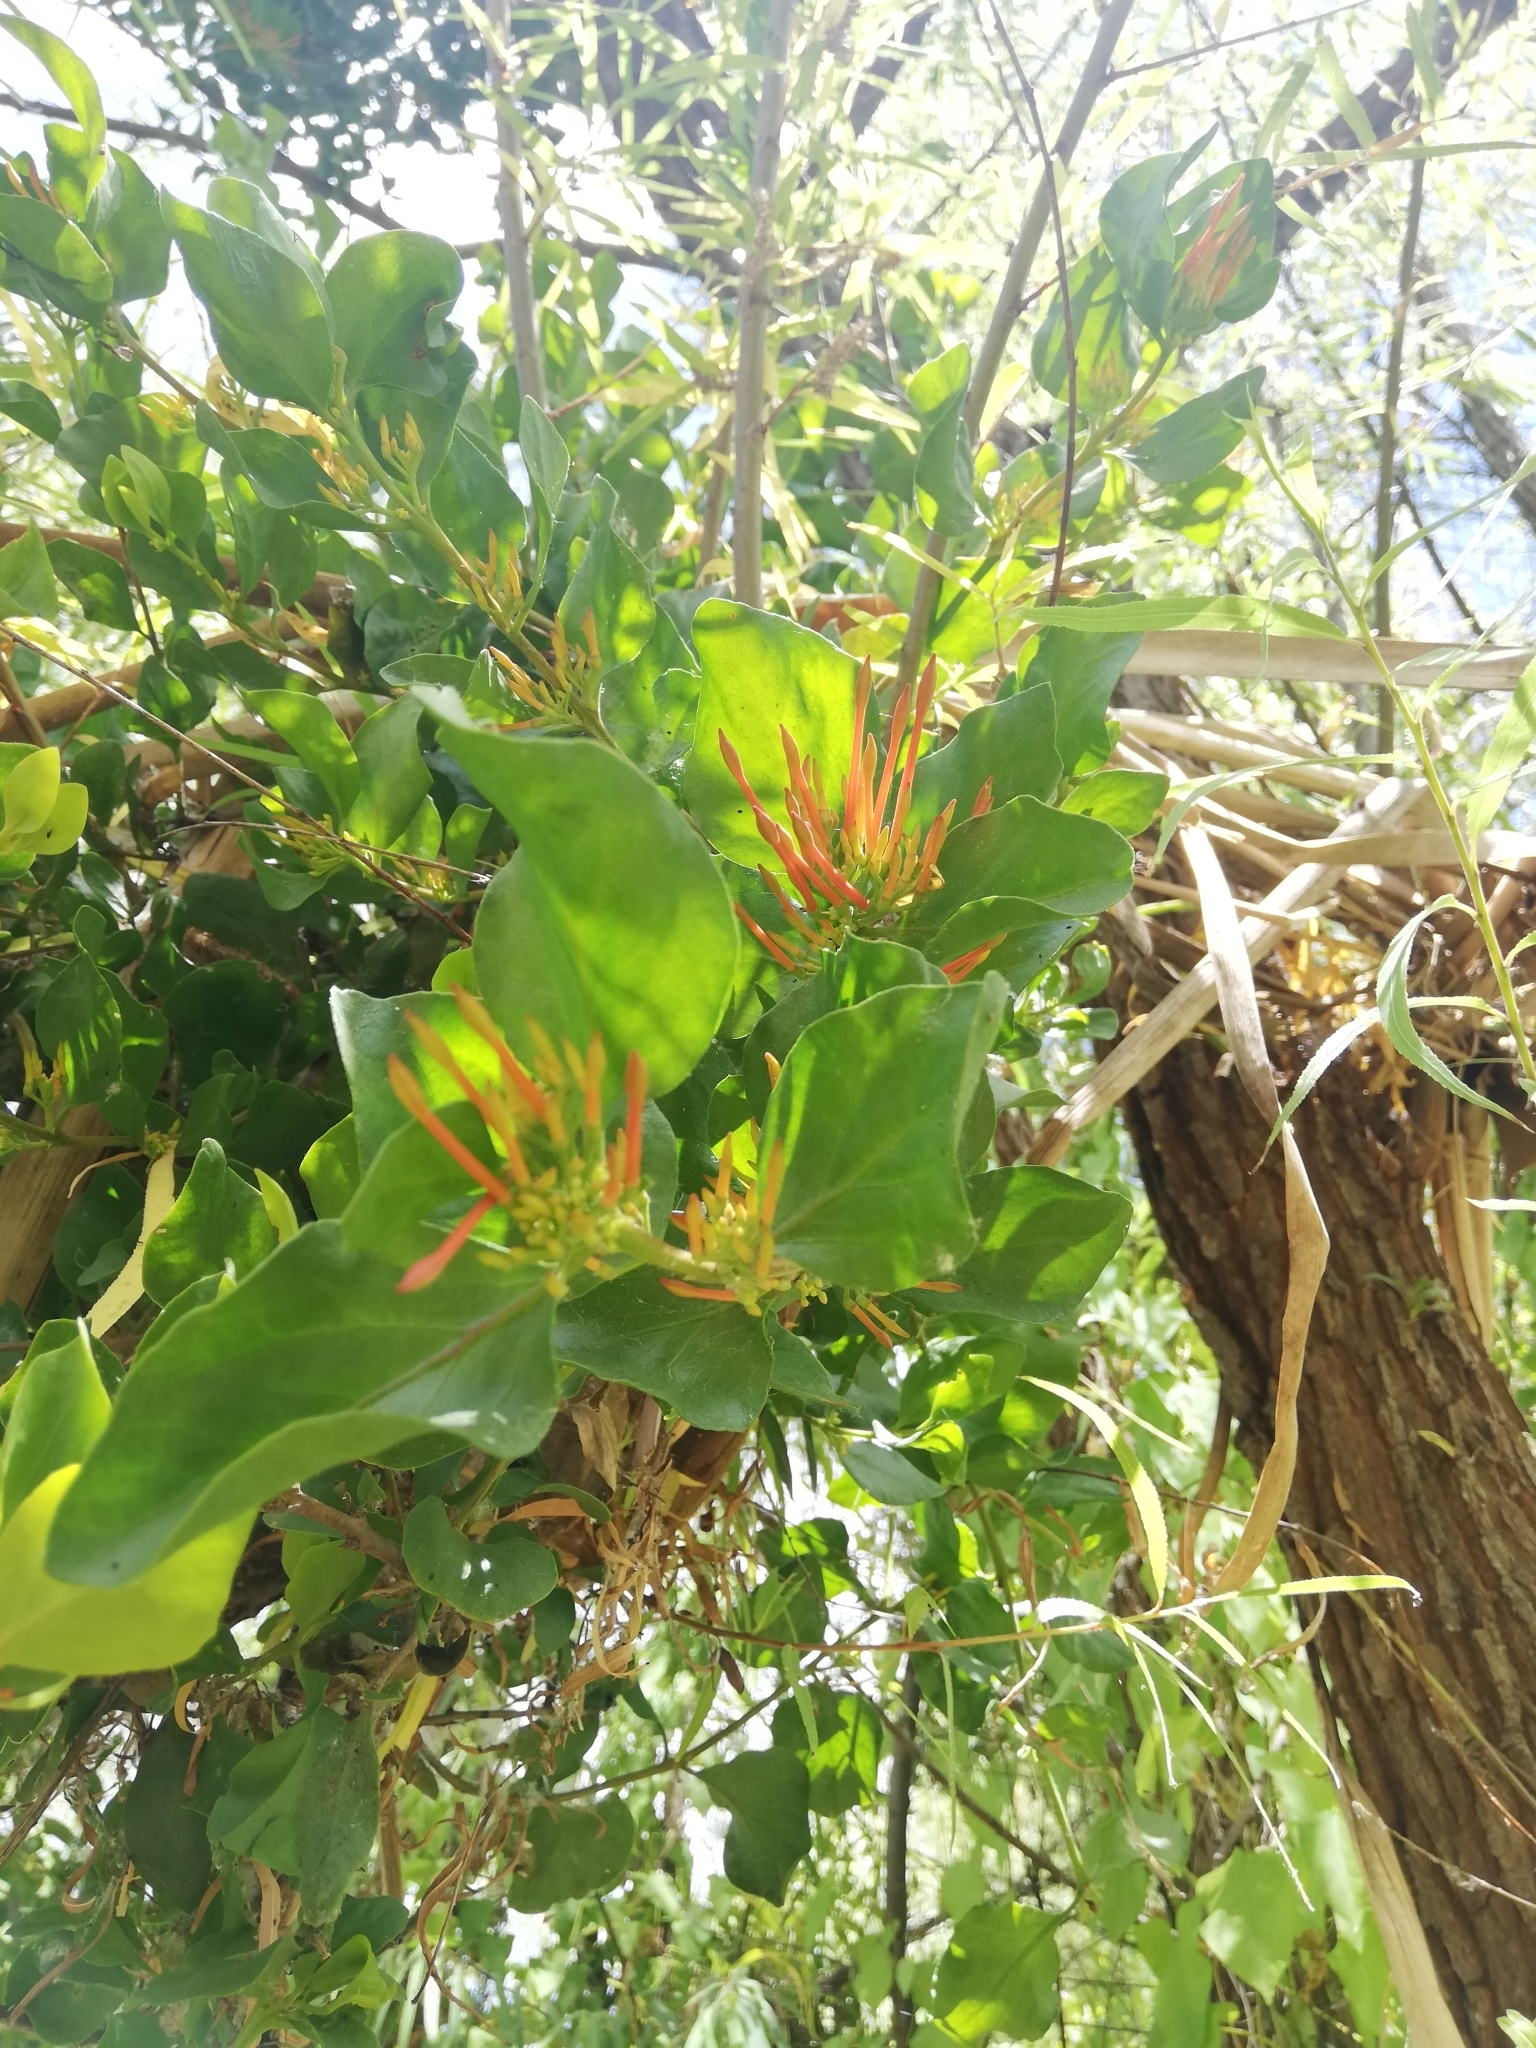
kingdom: Plantae
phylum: Tracheophyta
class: Magnoliopsida
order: Santalales
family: Loranthaceae
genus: Tristerix
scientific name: Tristerix corymbosus
